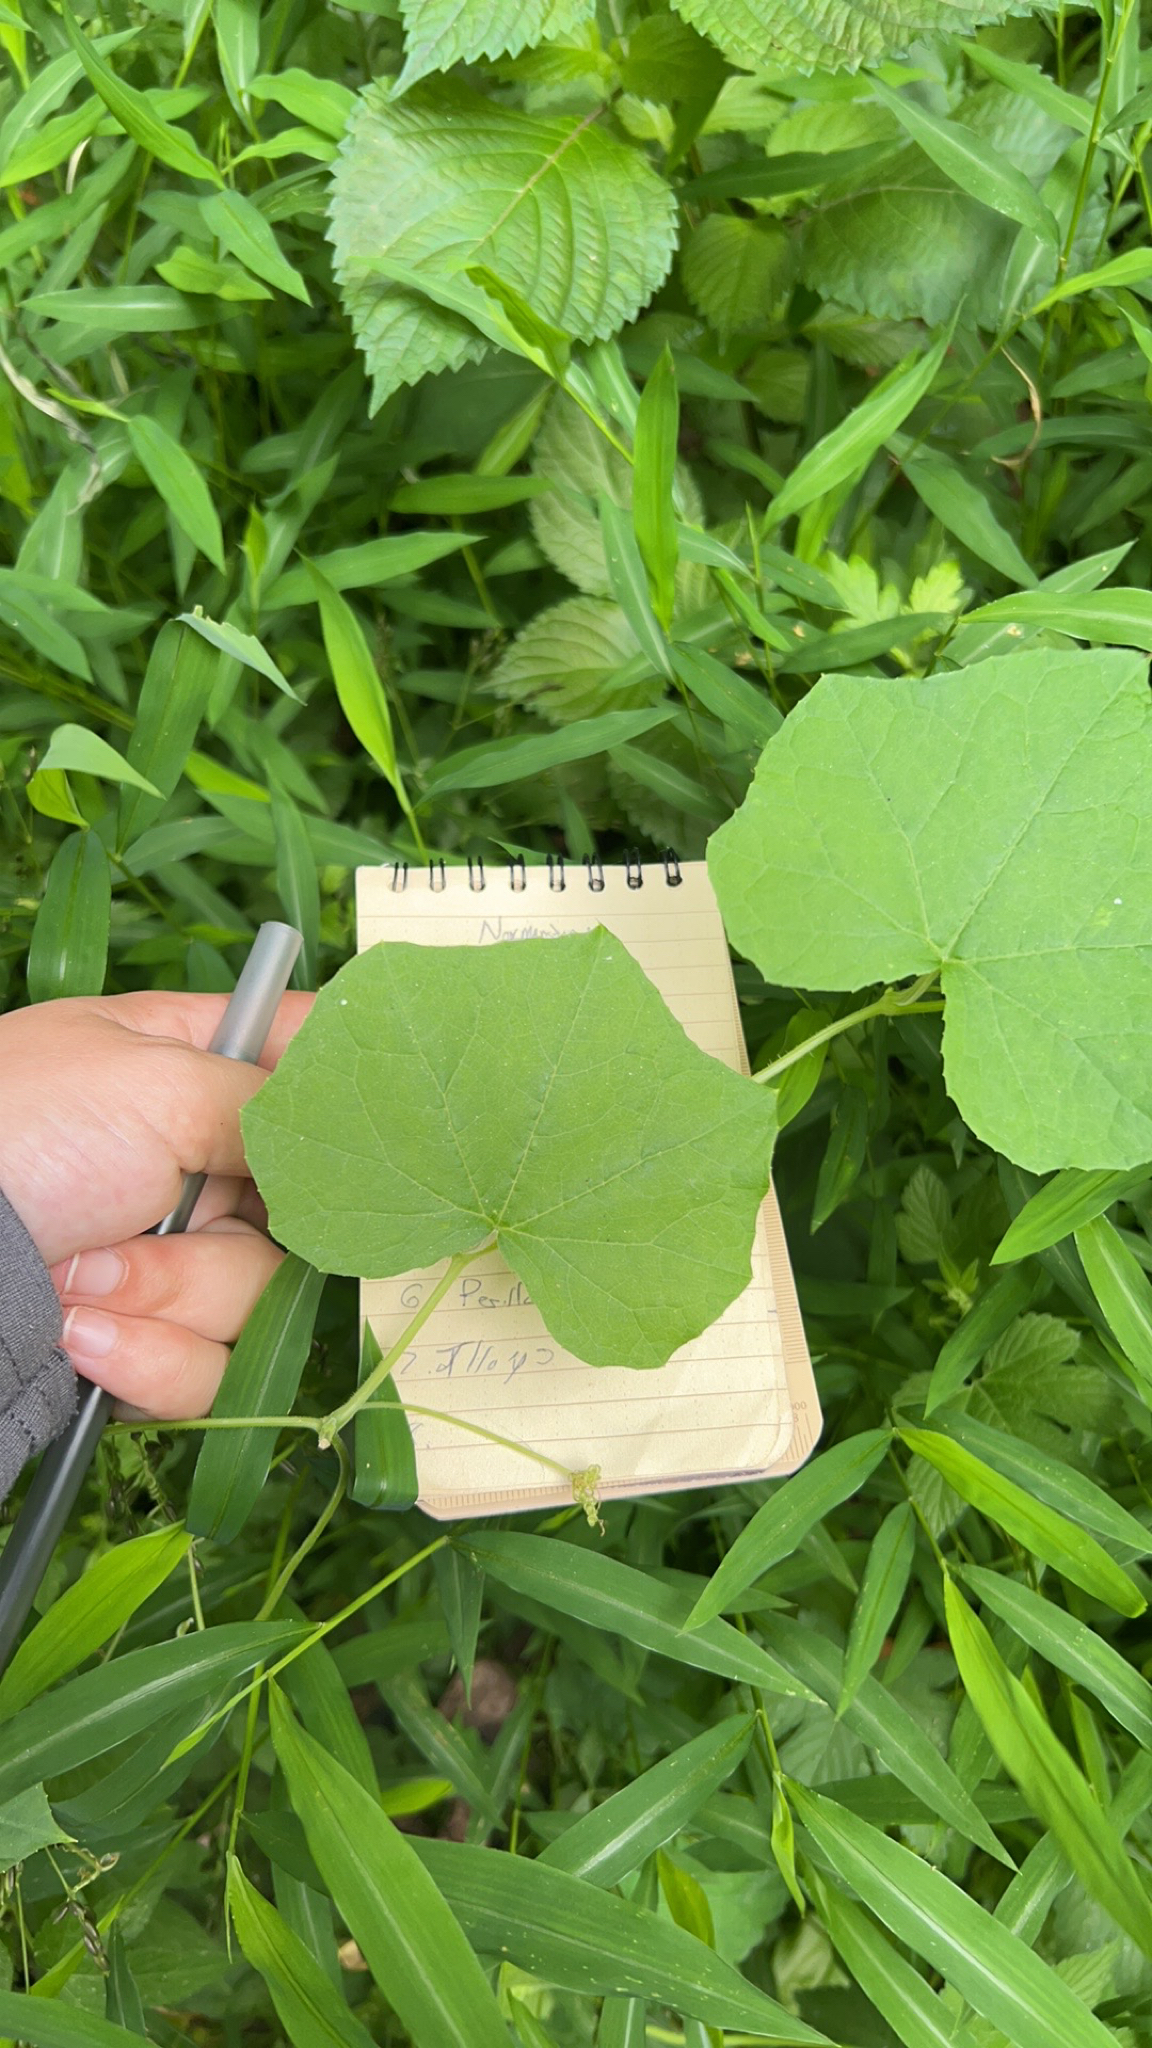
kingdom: Plantae
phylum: Tracheophyta
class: Magnoliopsida
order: Cucurbitales
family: Cucurbitaceae
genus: Sicyos
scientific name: Sicyos angulatus
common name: Angled burr cucumber
